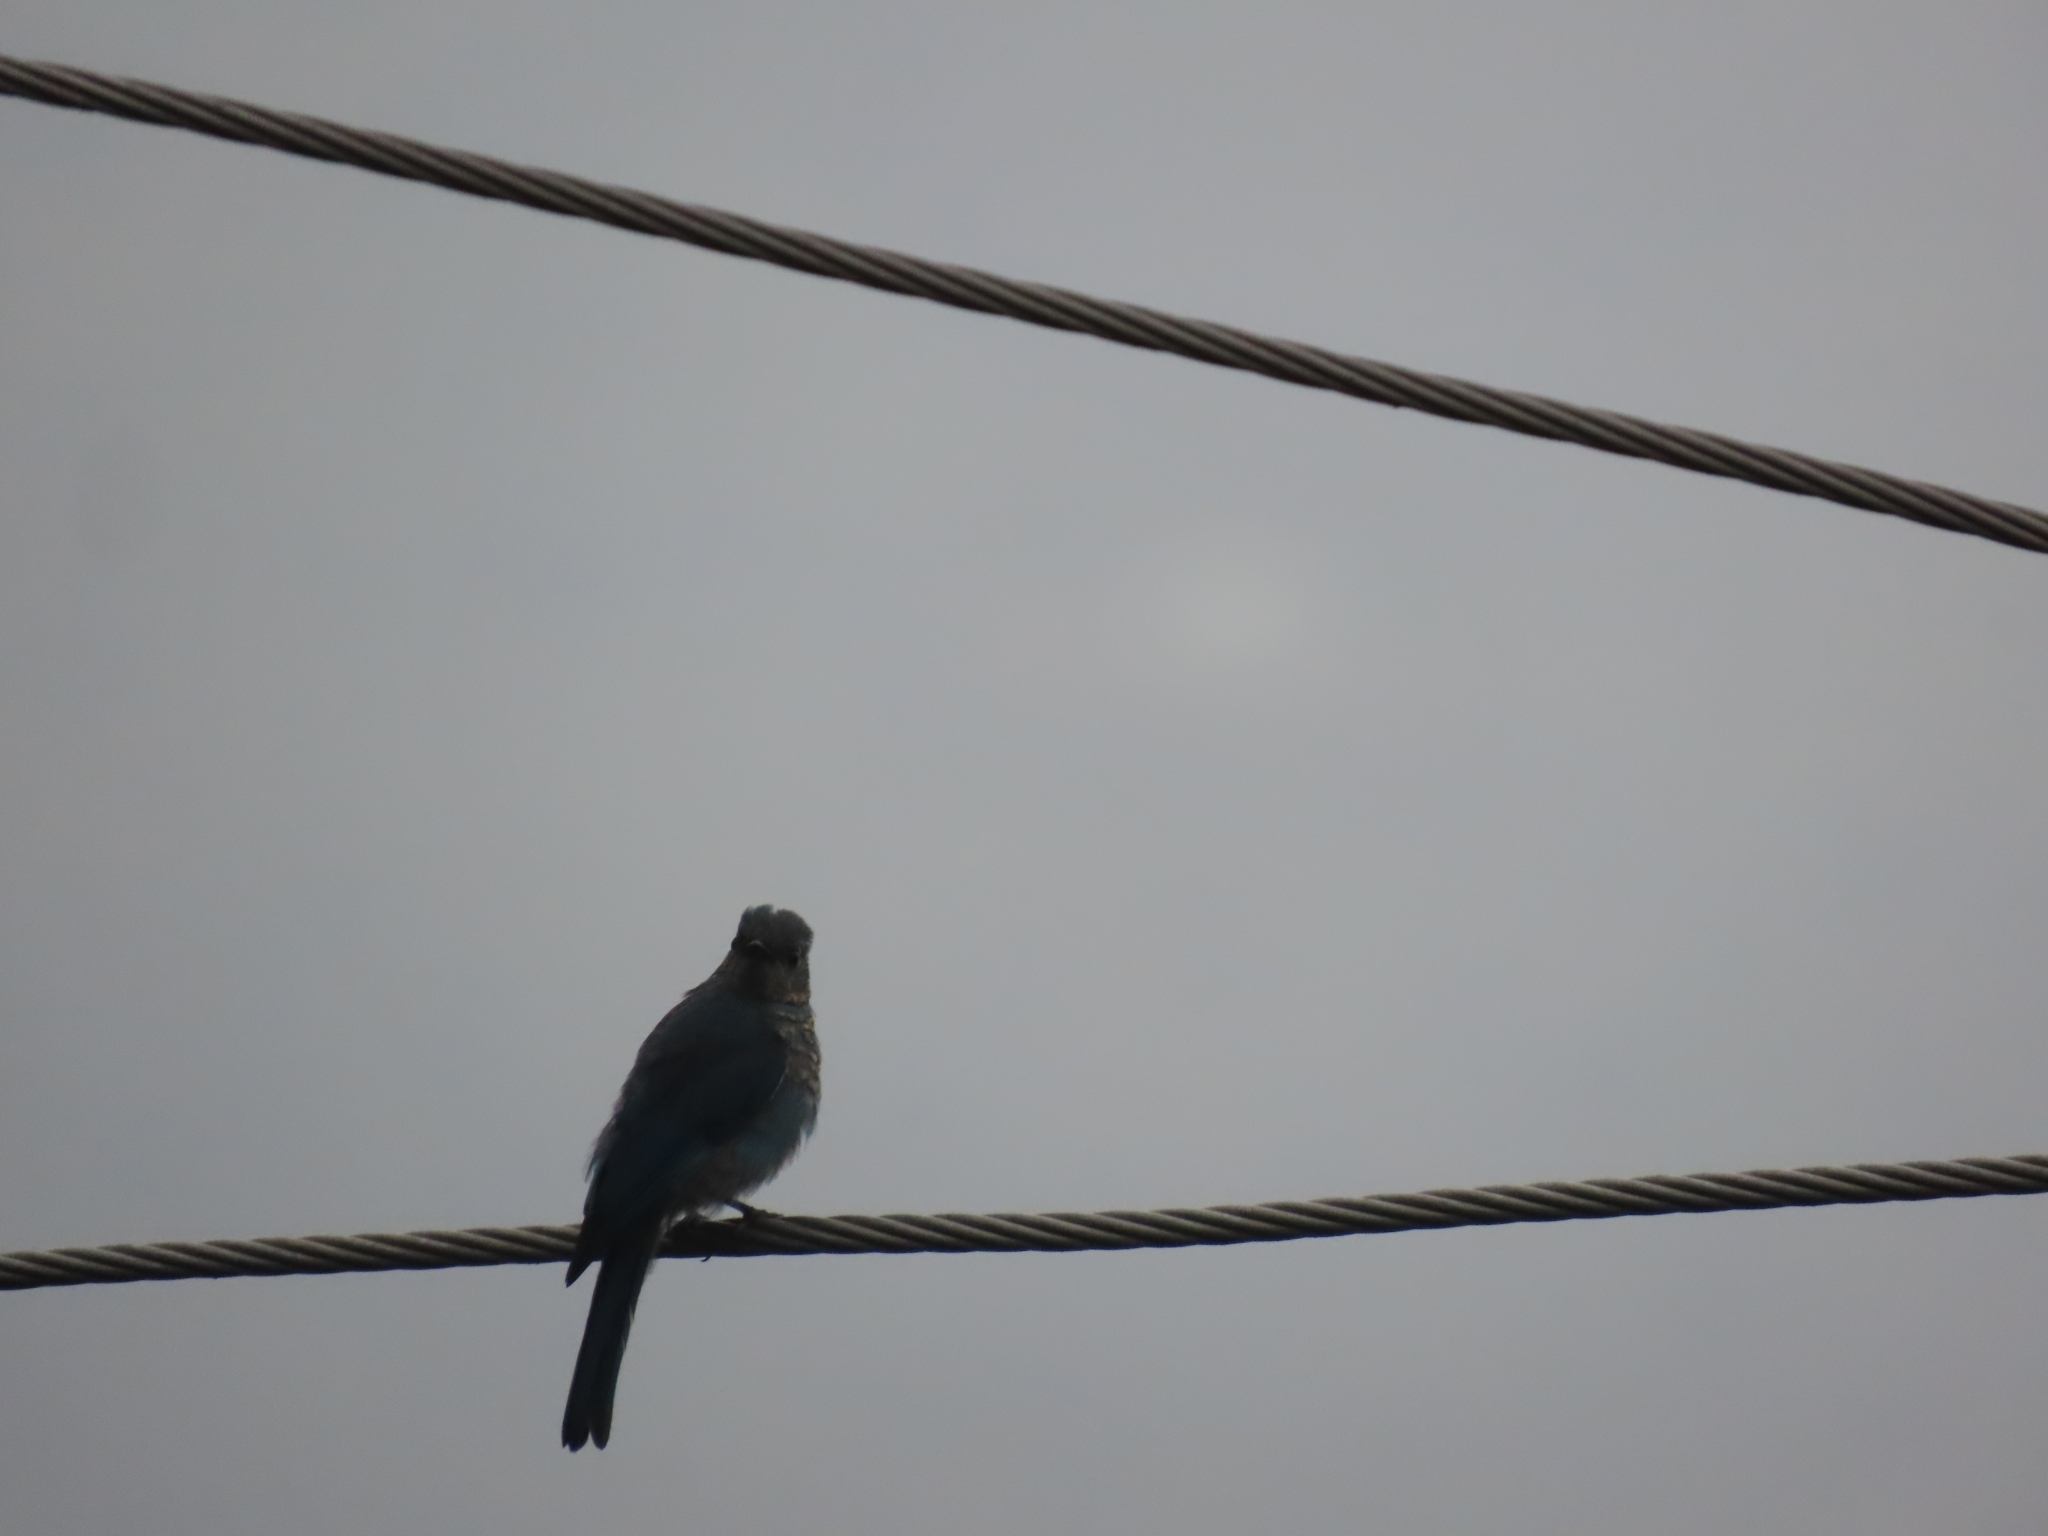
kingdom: Animalia
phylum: Chordata
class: Aves
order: Passeriformes
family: Muscicapidae
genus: Eumyias
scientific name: Eumyias thalassinus
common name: Verditer flycatcher
